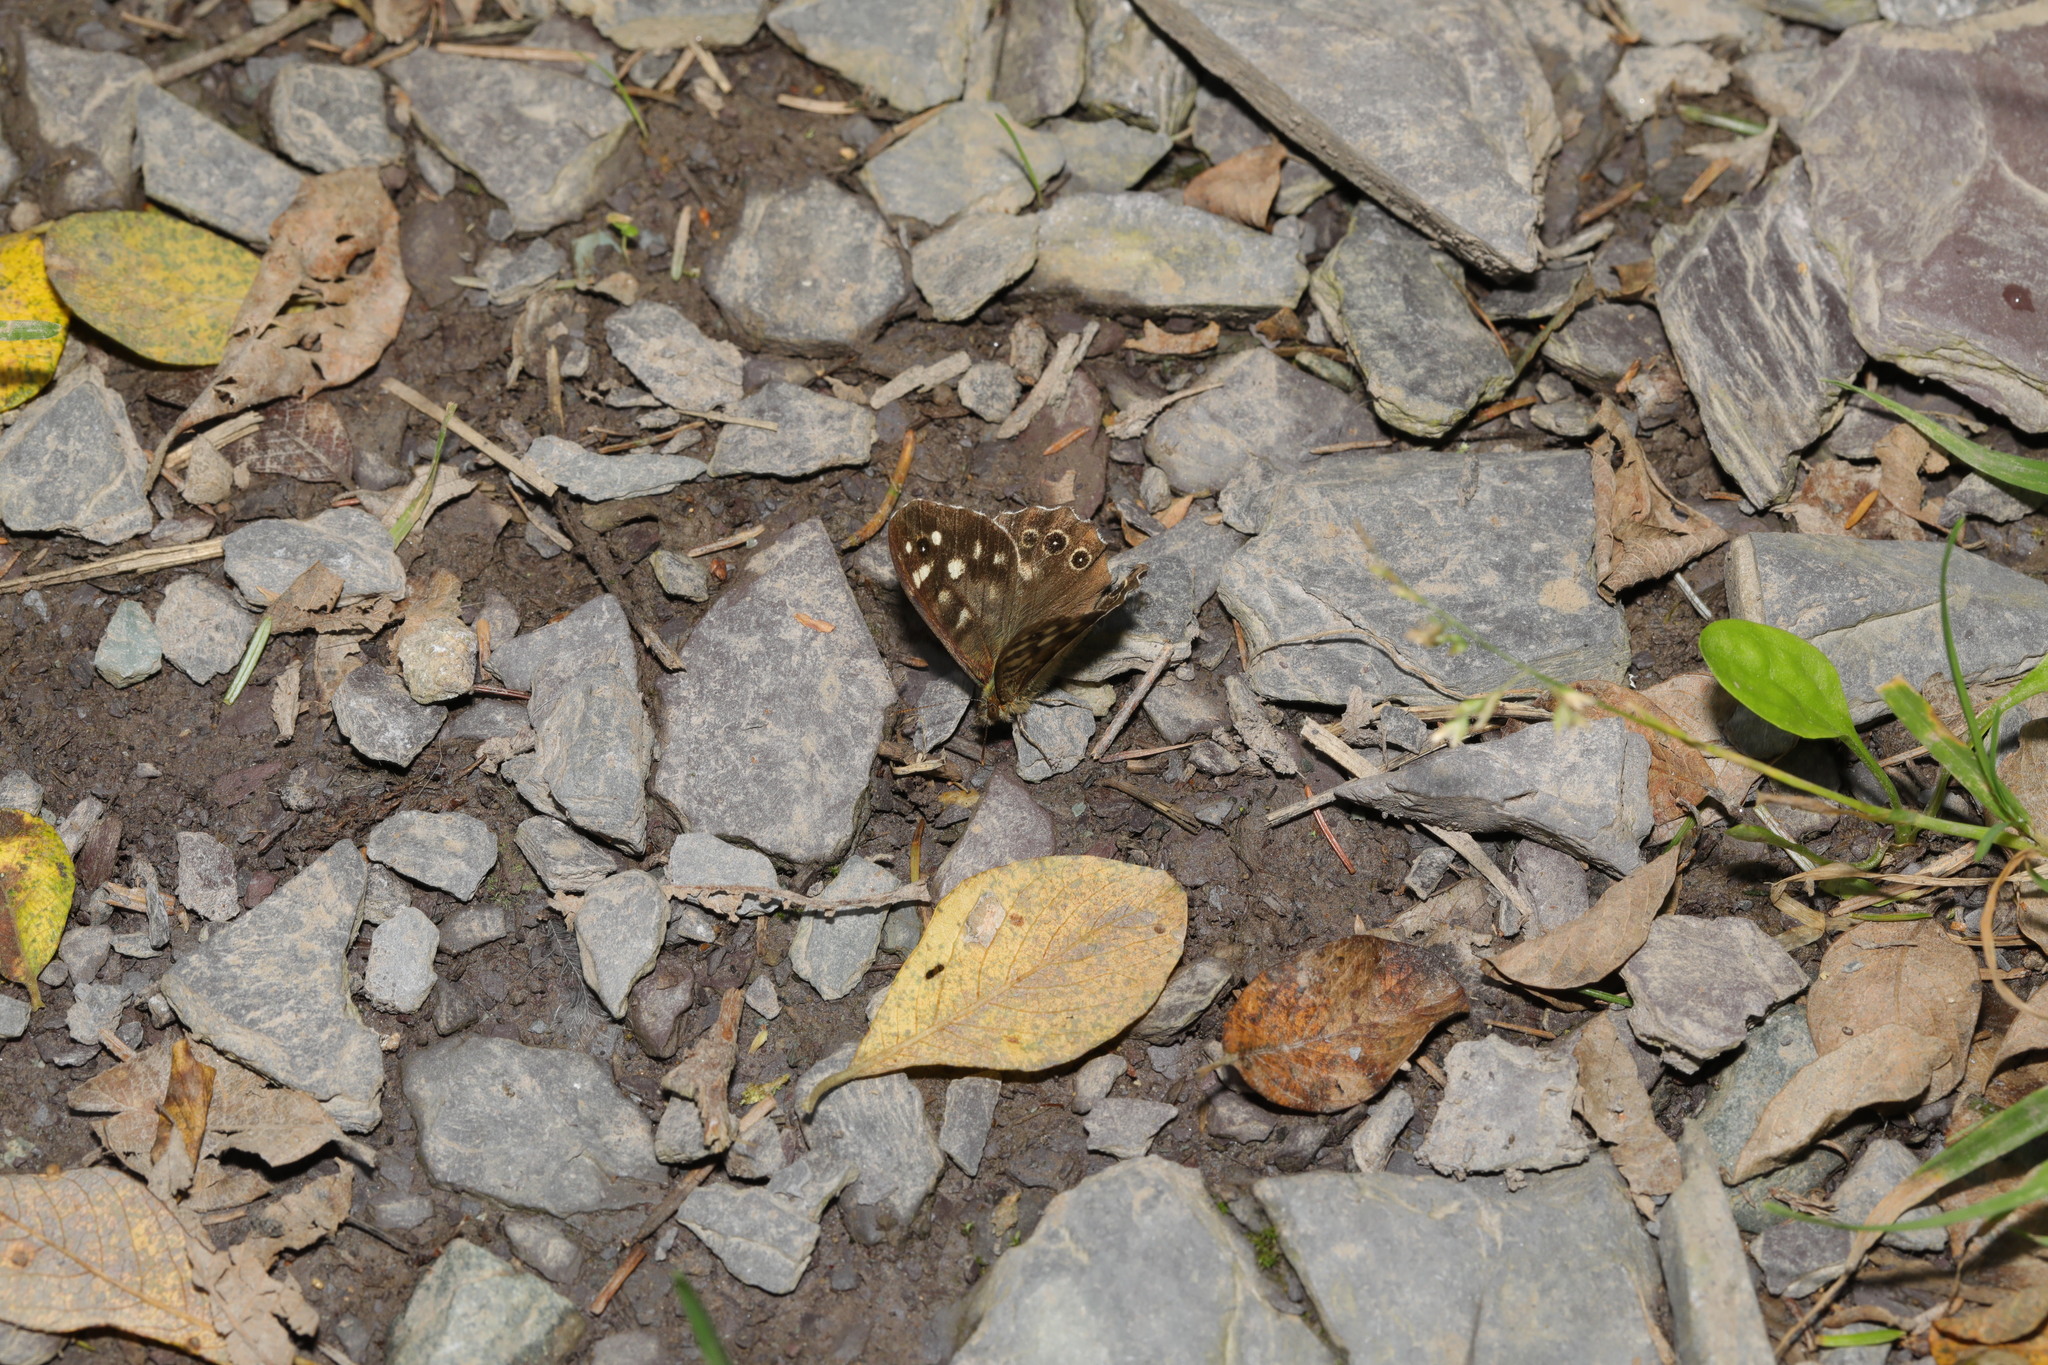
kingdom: Animalia
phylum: Arthropoda
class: Insecta
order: Lepidoptera
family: Nymphalidae
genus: Pararge
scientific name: Pararge aegeria
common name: Speckled wood
